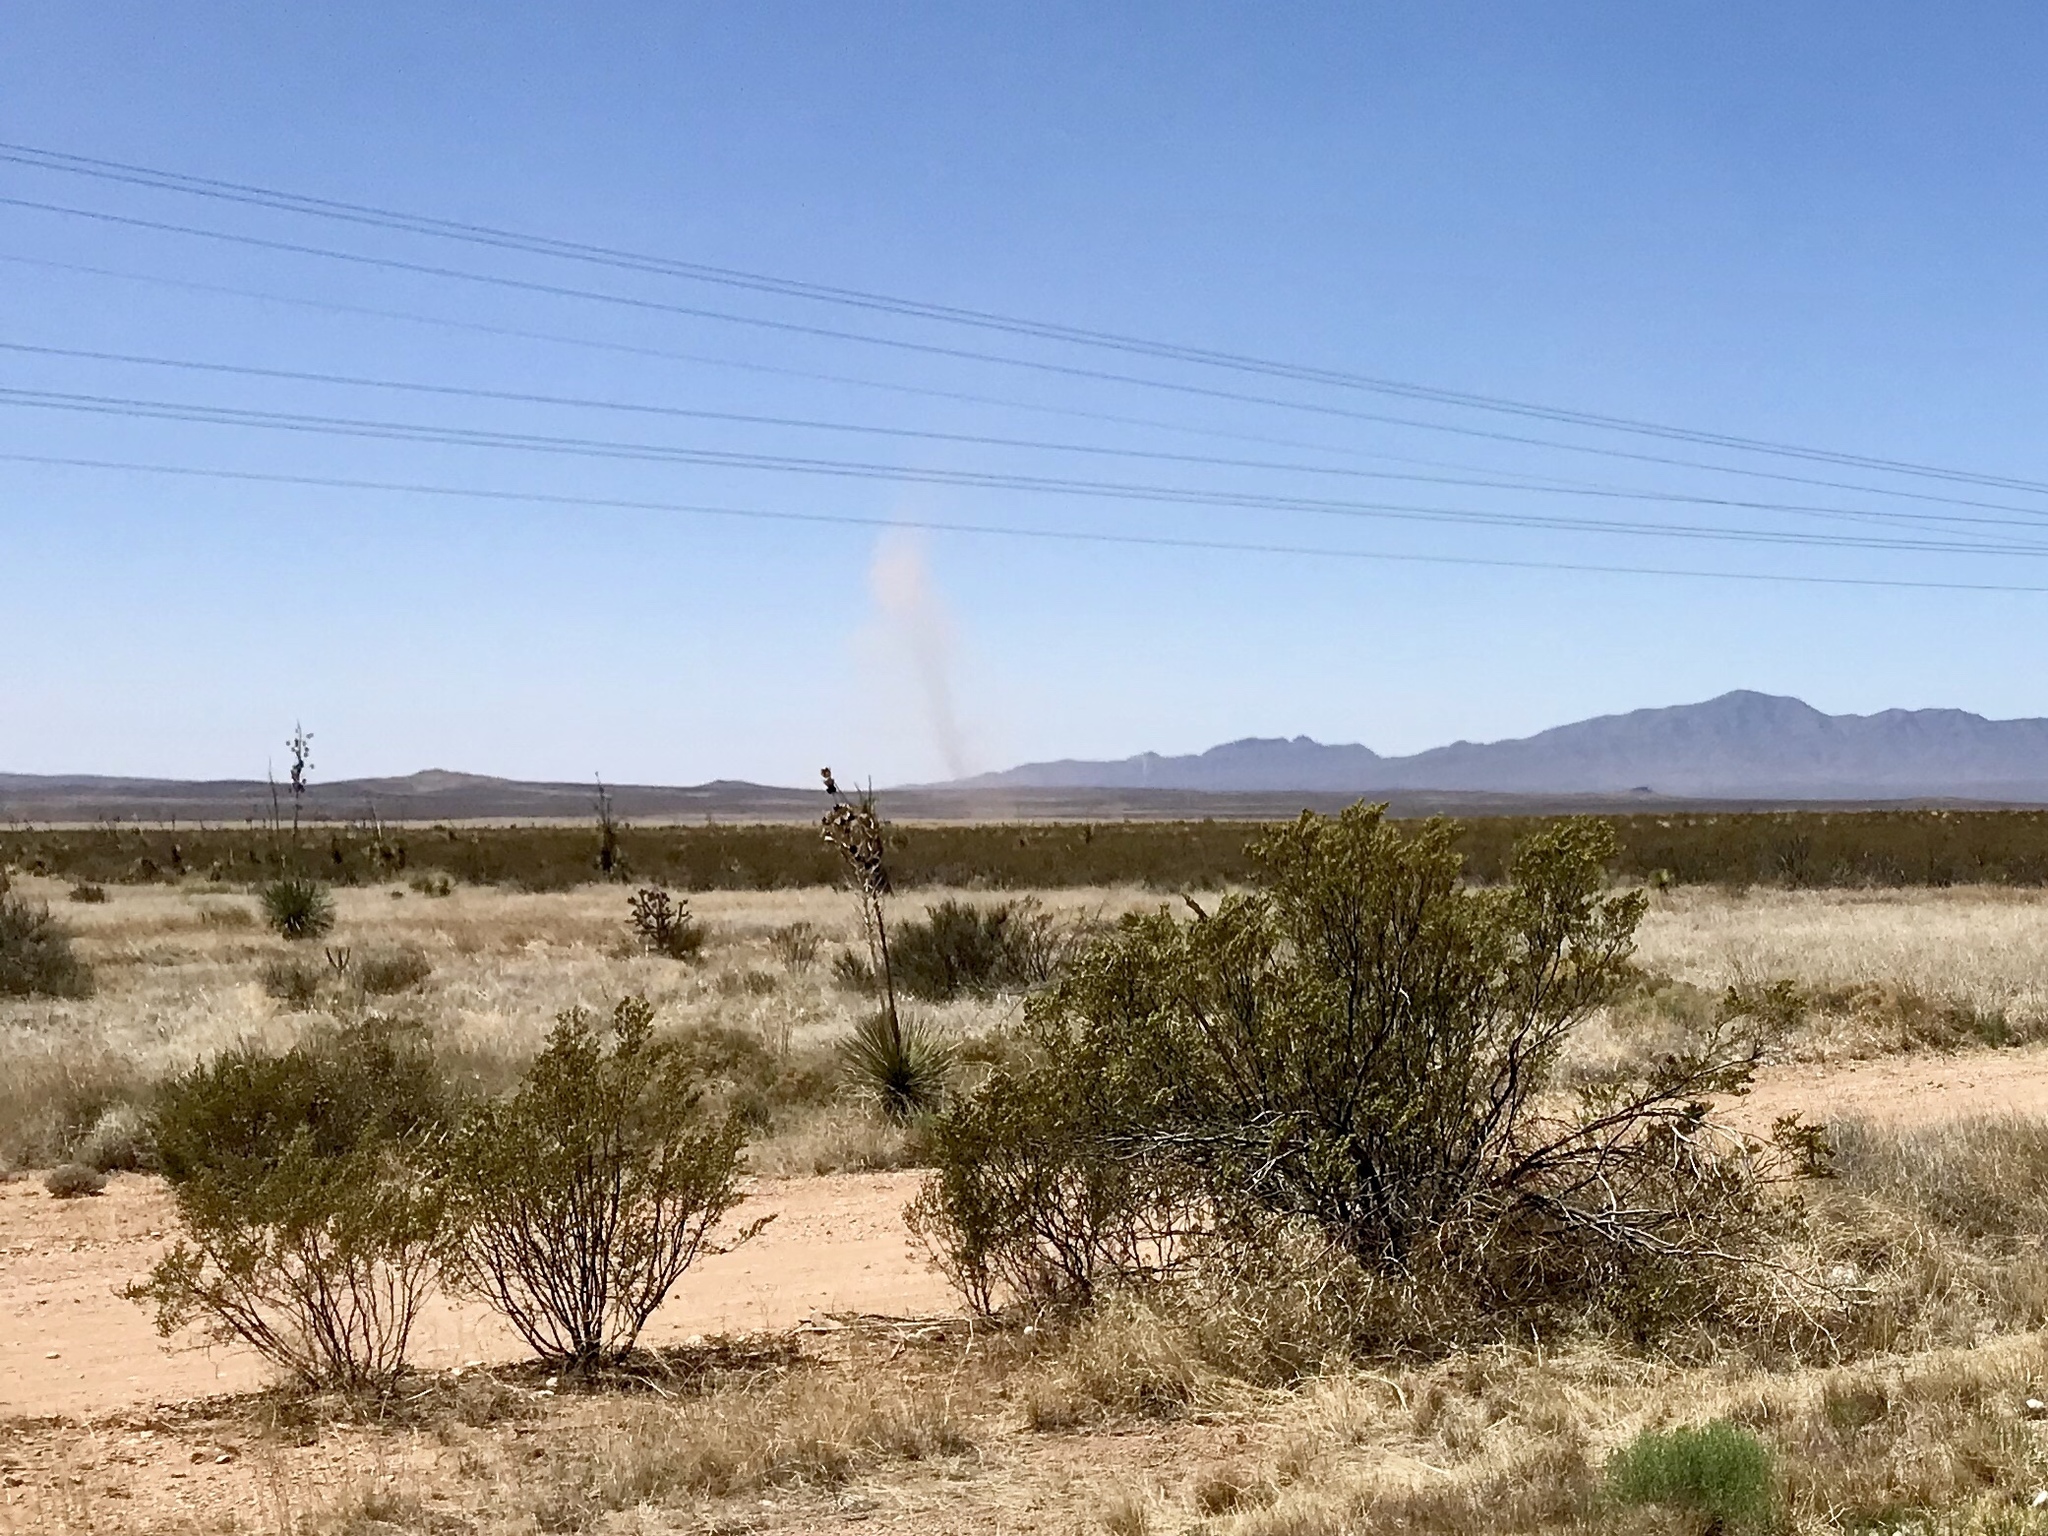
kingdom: Plantae
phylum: Tracheophyta
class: Magnoliopsida
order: Zygophyllales
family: Zygophyllaceae
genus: Larrea
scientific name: Larrea tridentata
